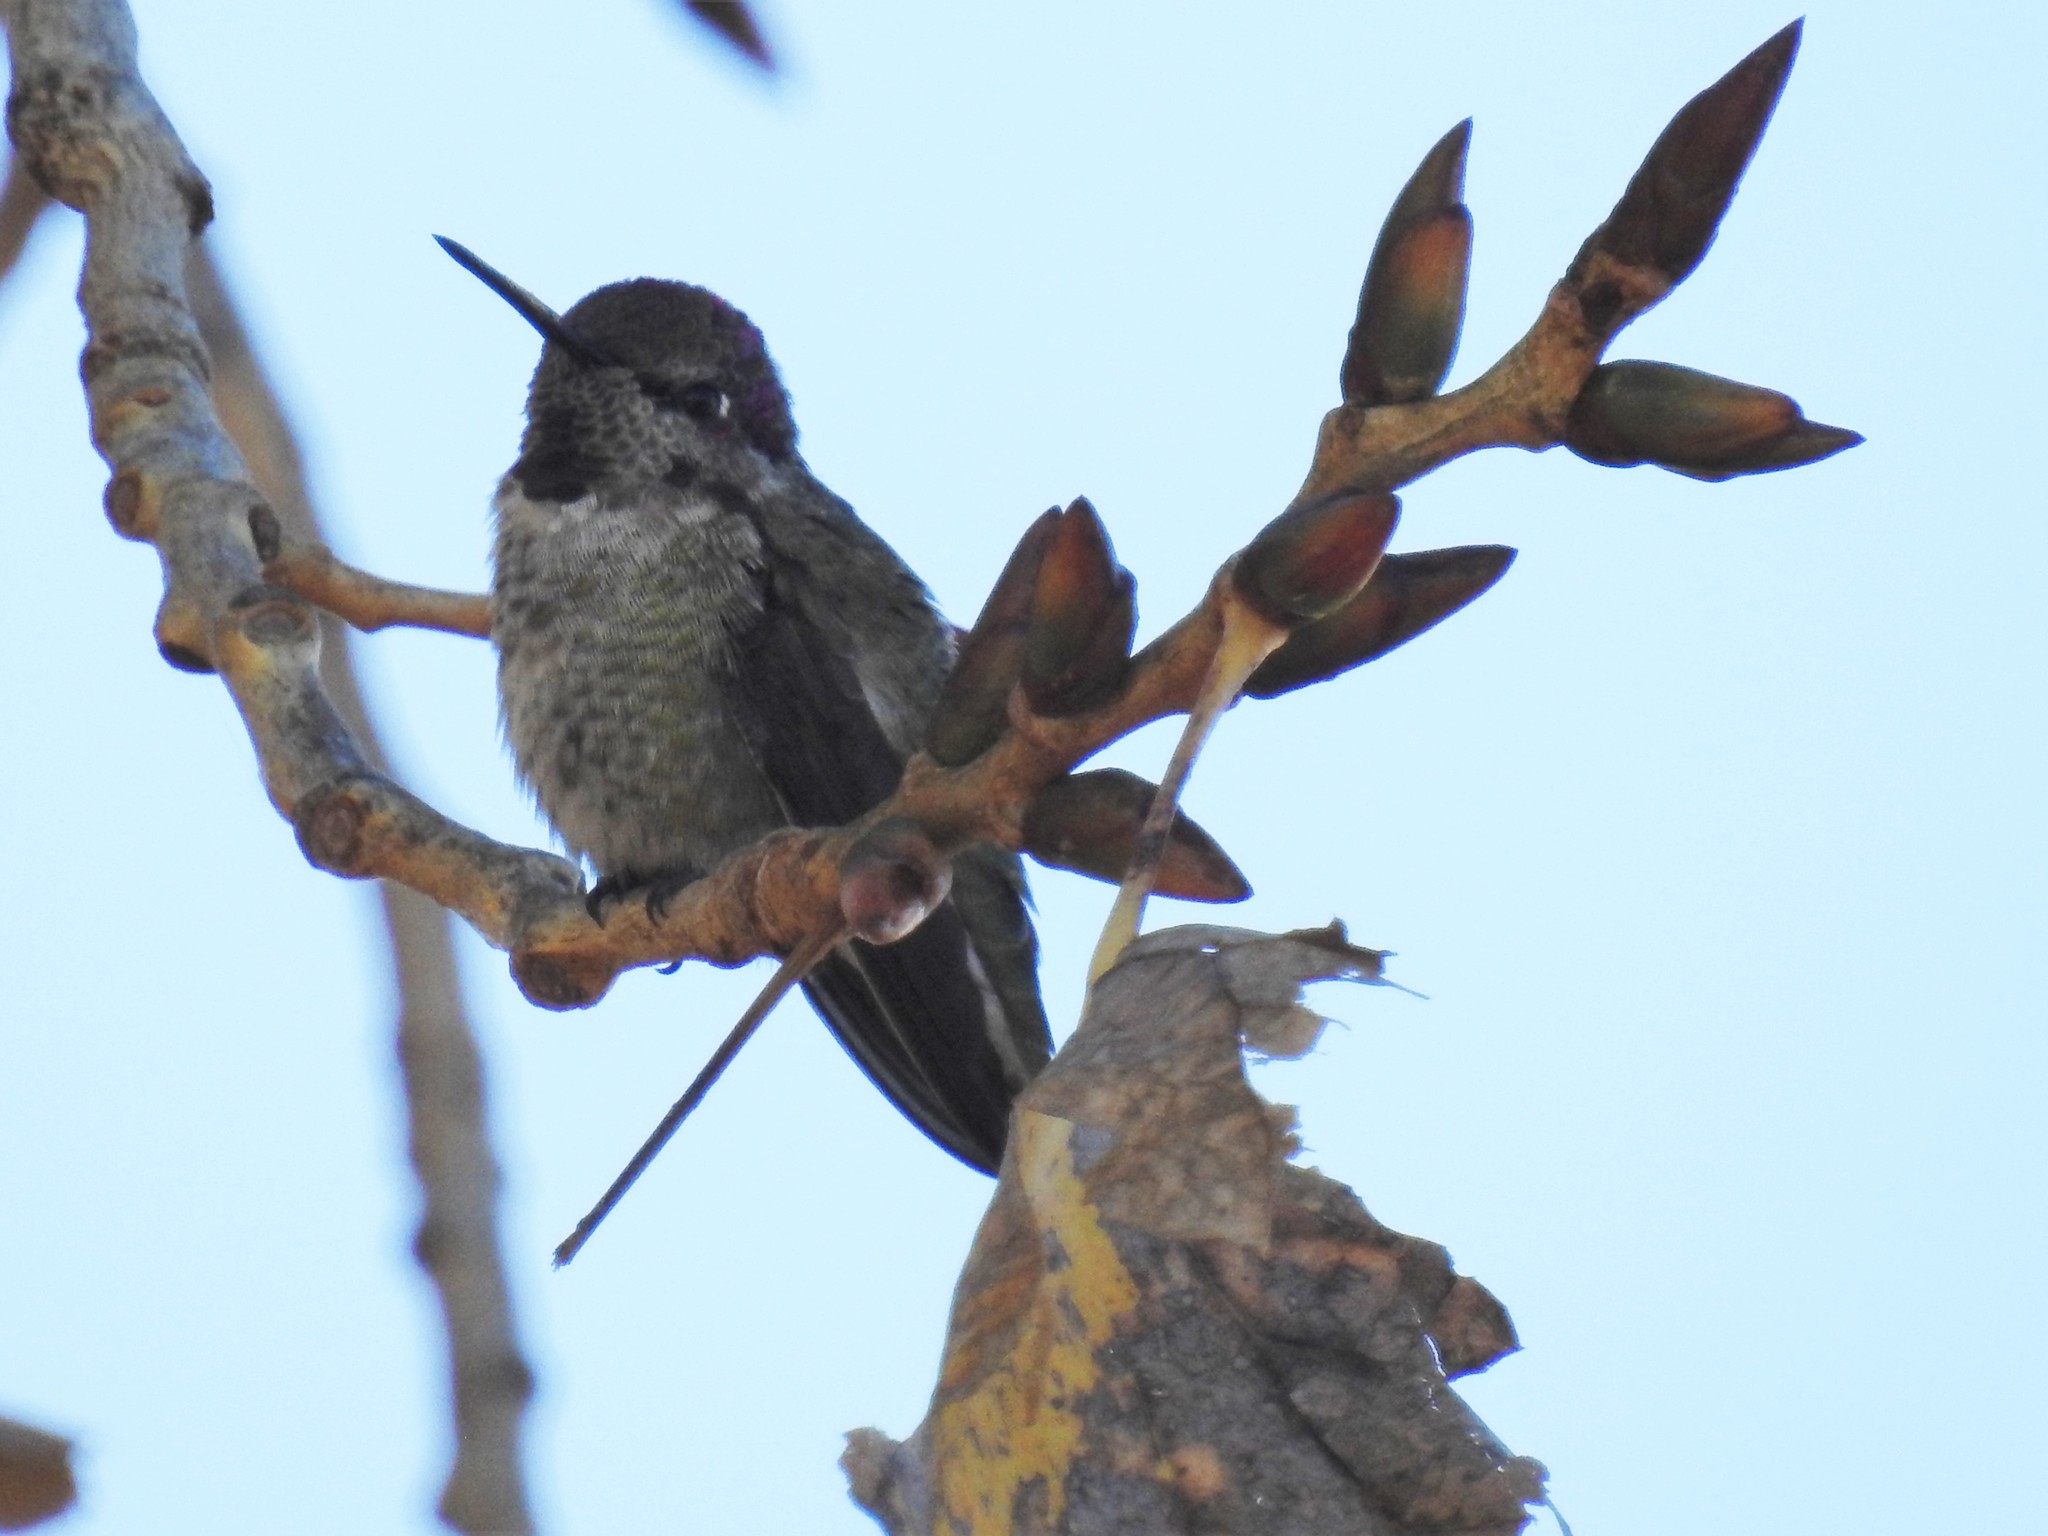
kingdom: Animalia
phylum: Chordata
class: Aves
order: Apodiformes
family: Trochilidae
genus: Calypte
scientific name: Calypte anna
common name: Anna's hummingbird
